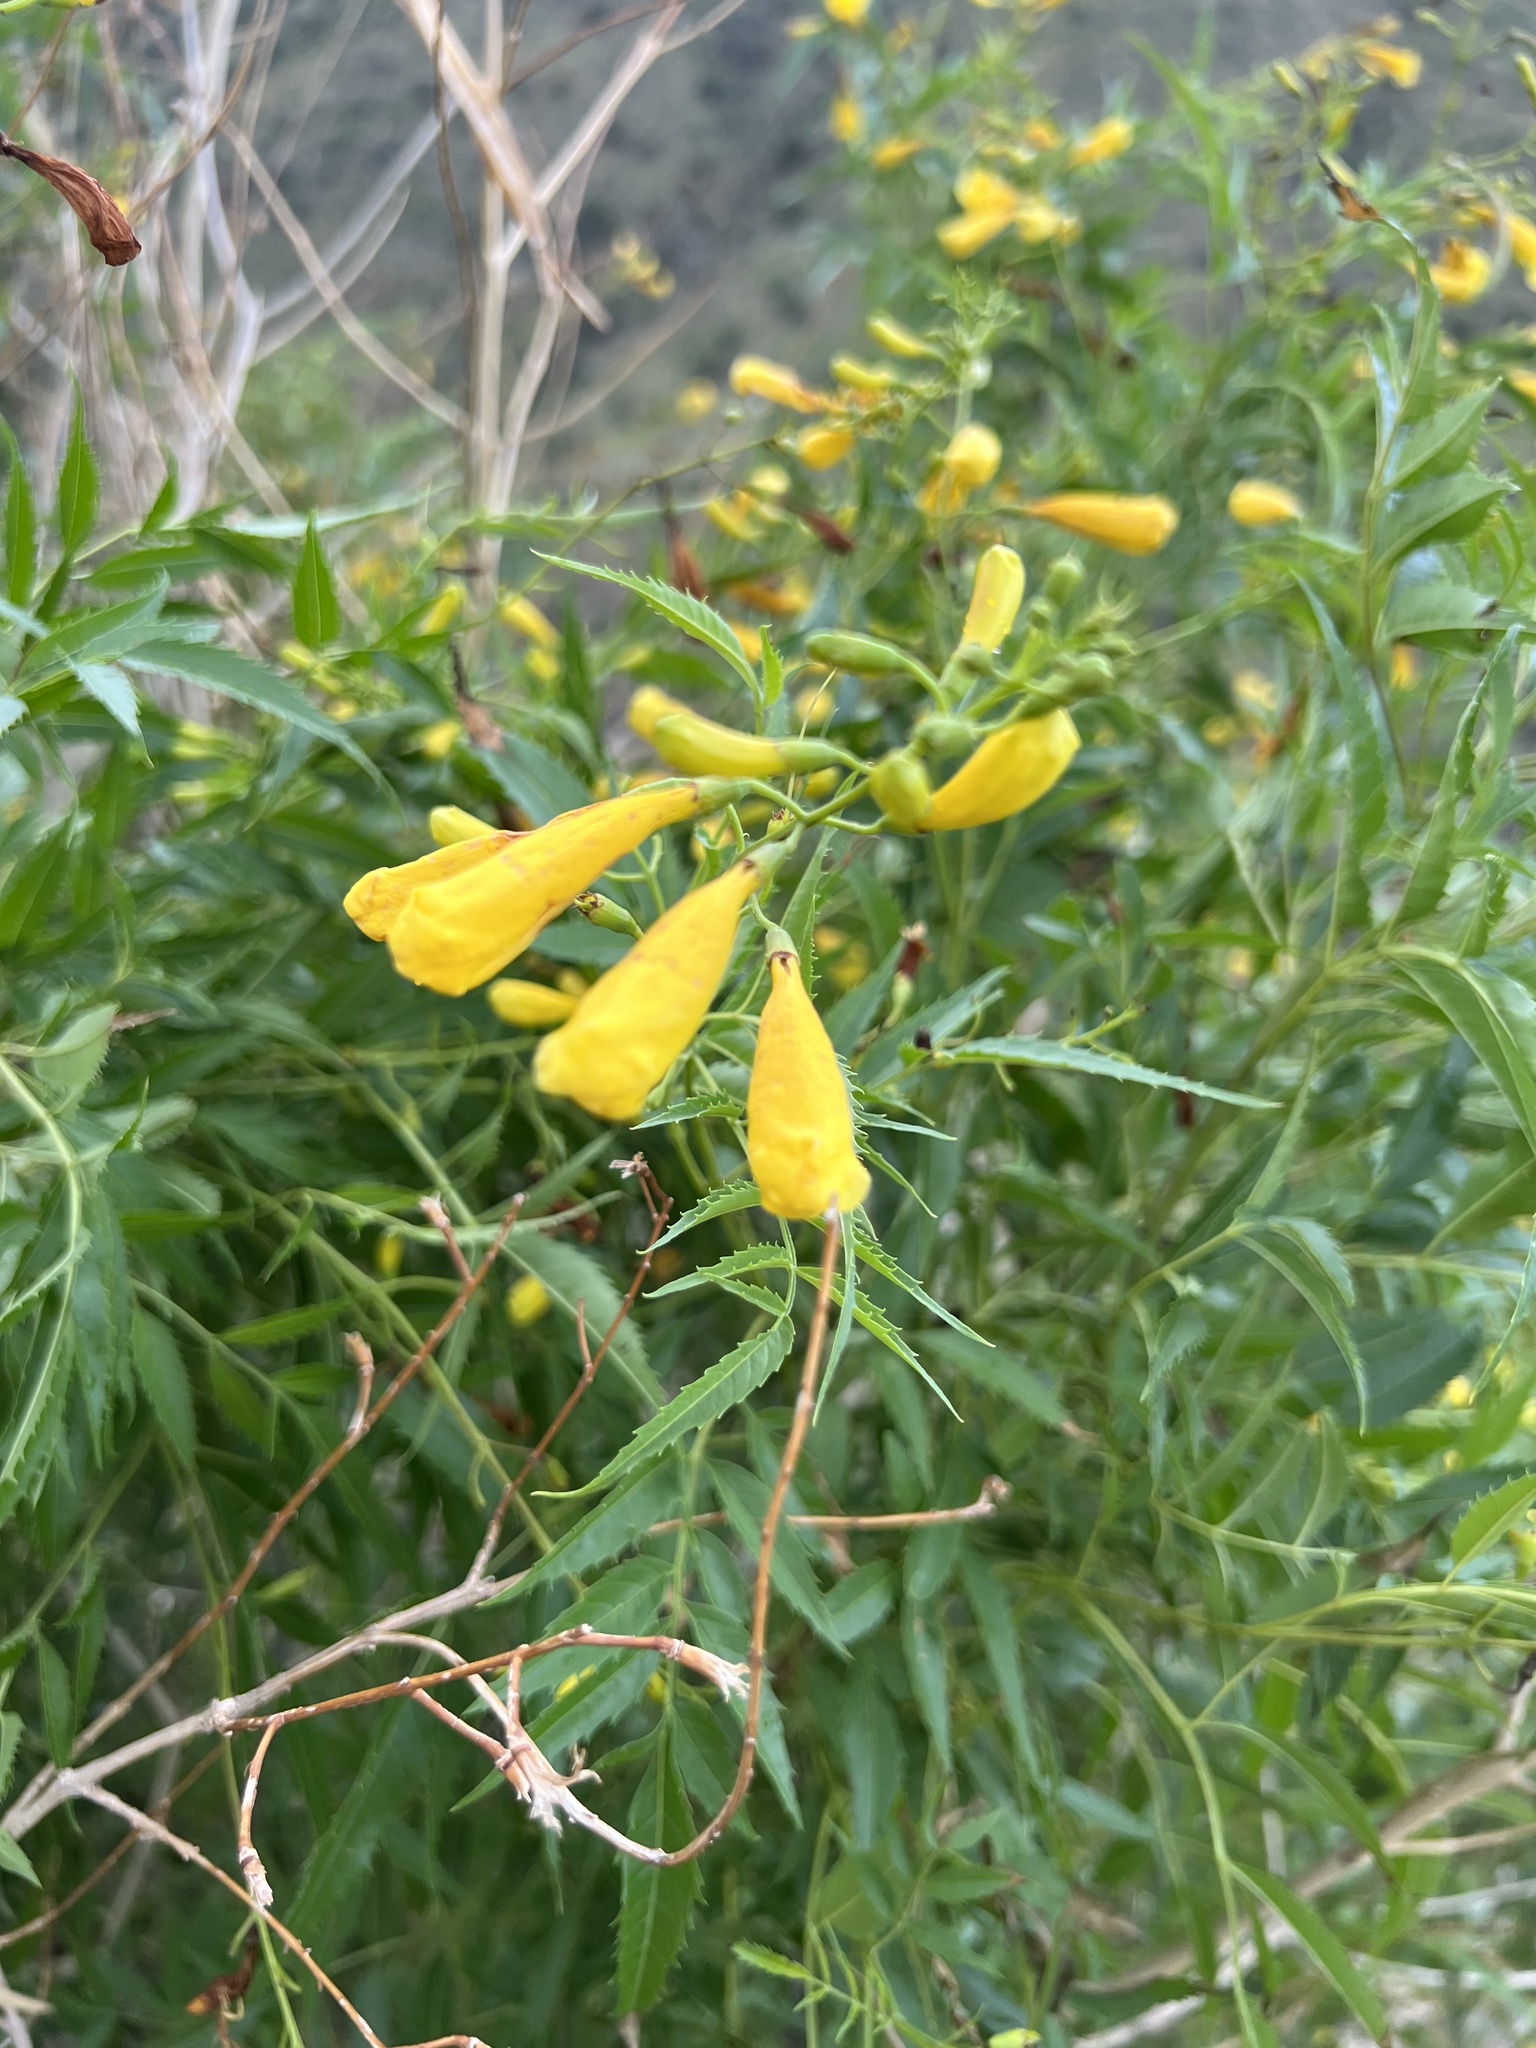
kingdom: Plantae
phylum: Tracheophyta
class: Magnoliopsida
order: Lamiales
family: Bignoniaceae
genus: Tecoma
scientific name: Tecoma stans
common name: Yellow trumpetbush
